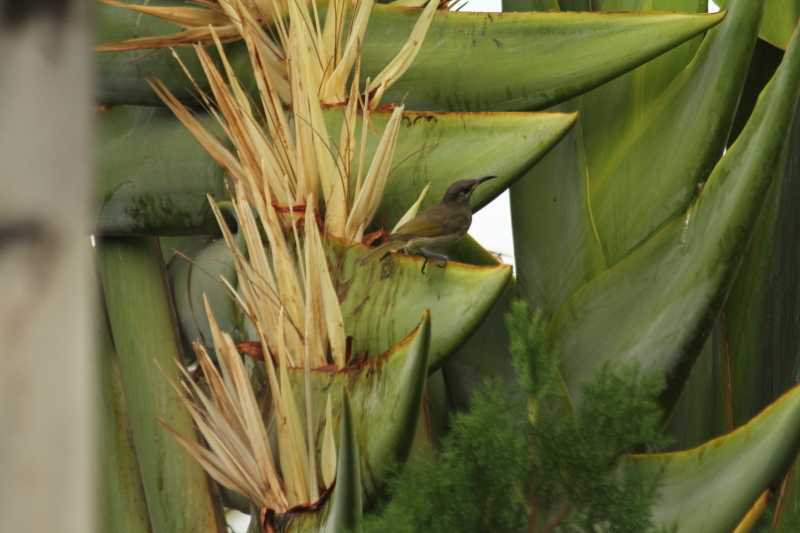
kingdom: Animalia
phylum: Chordata
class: Aves
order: Passeriformes
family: Meliphagidae
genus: Lichmera
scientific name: Lichmera incana
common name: Grey-eared honeyeater
